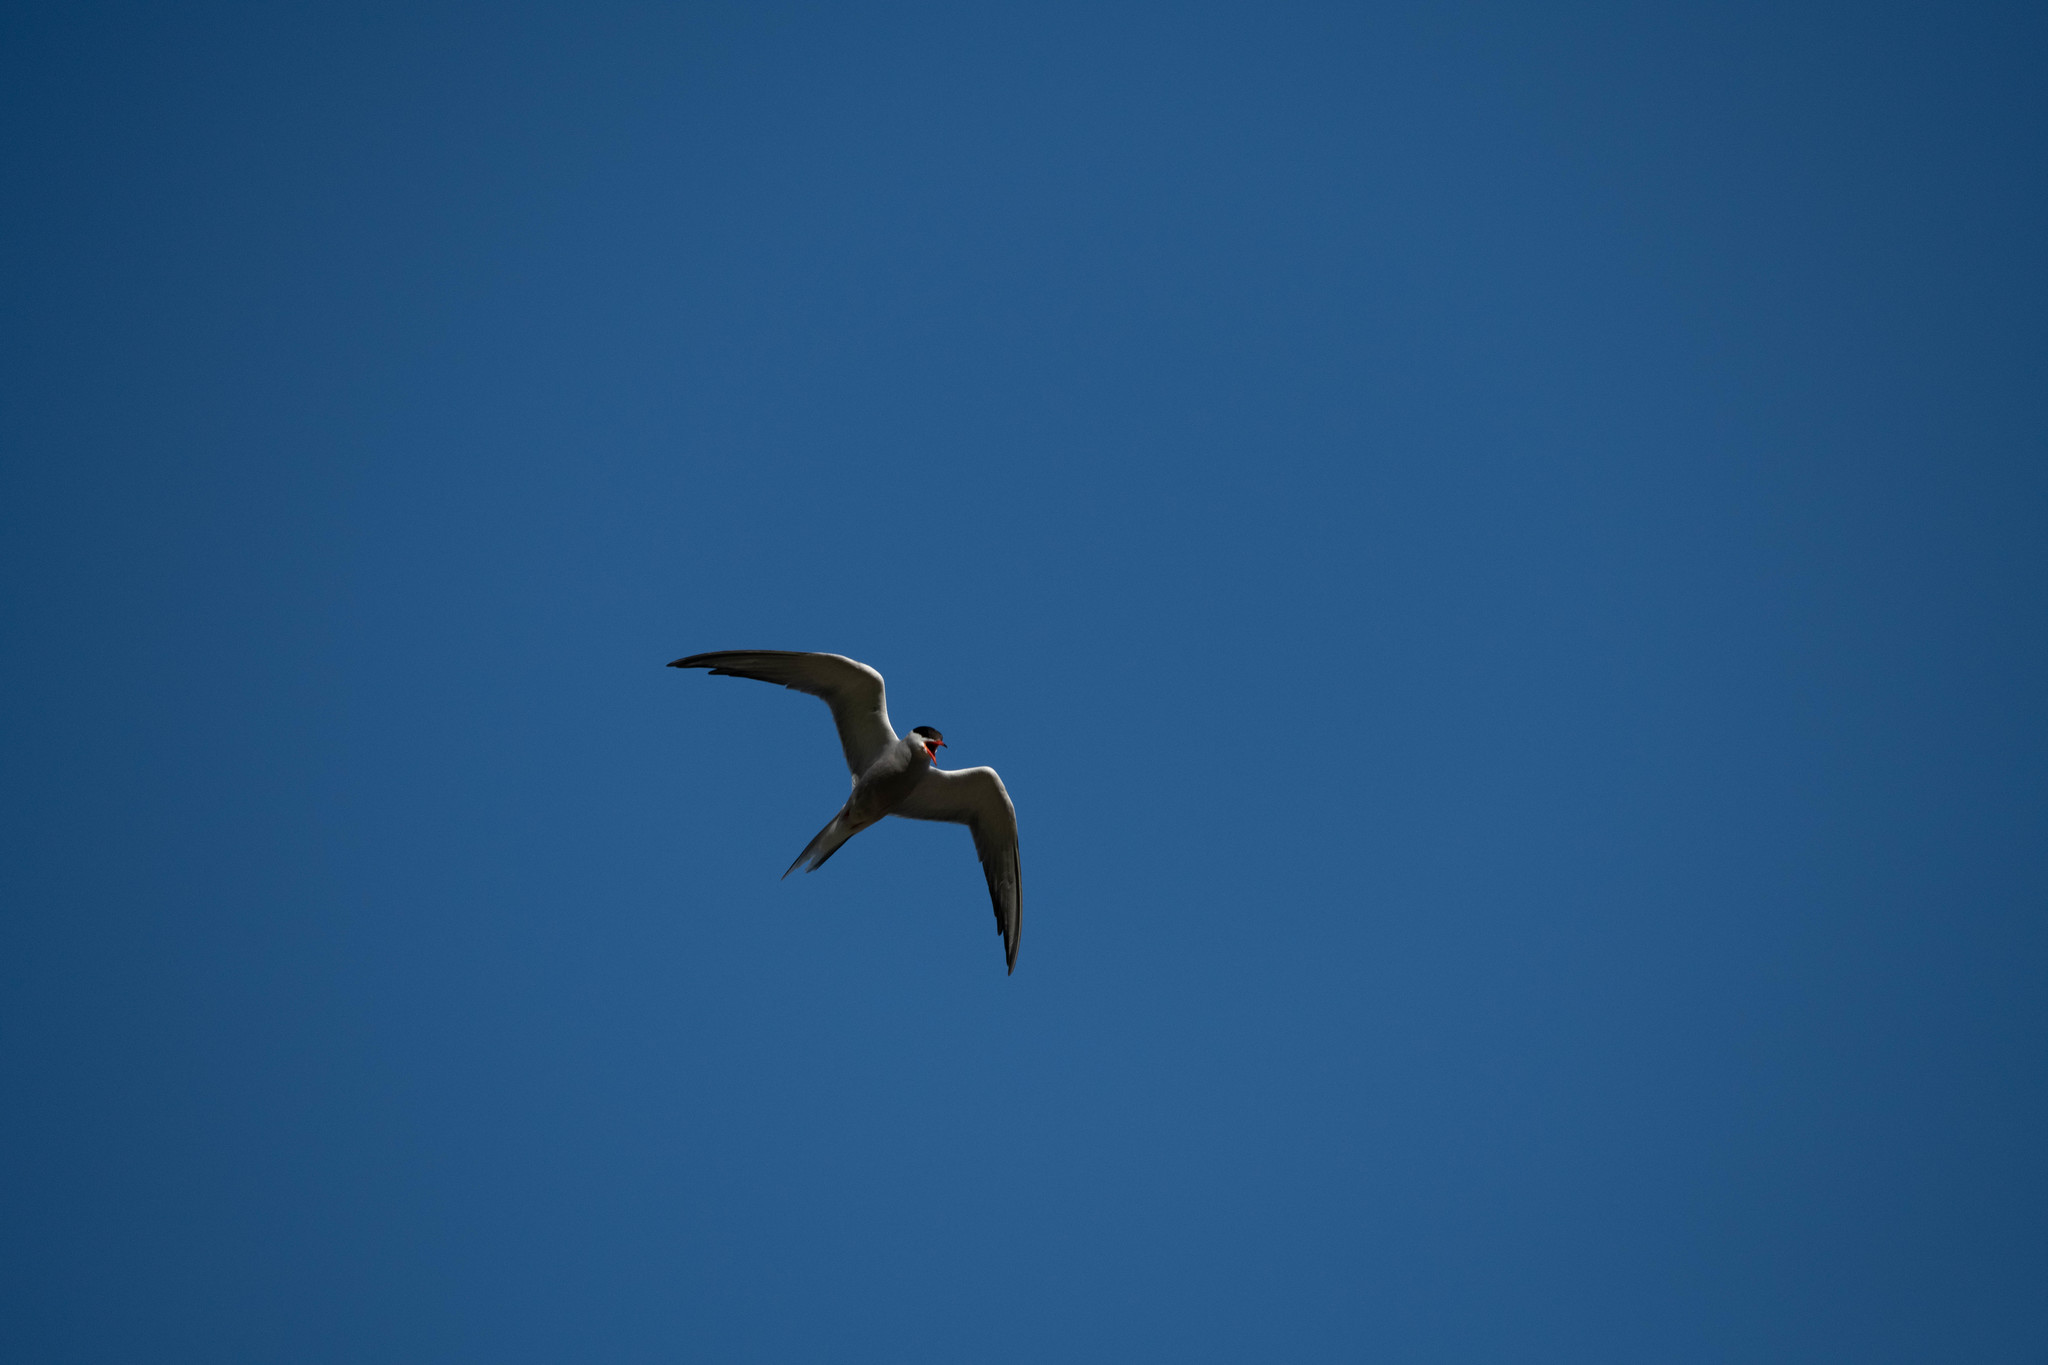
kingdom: Animalia
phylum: Chordata
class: Aves
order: Charadriiformes
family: Laridae
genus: Sterna
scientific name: Sterna hirundo
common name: Common tern
